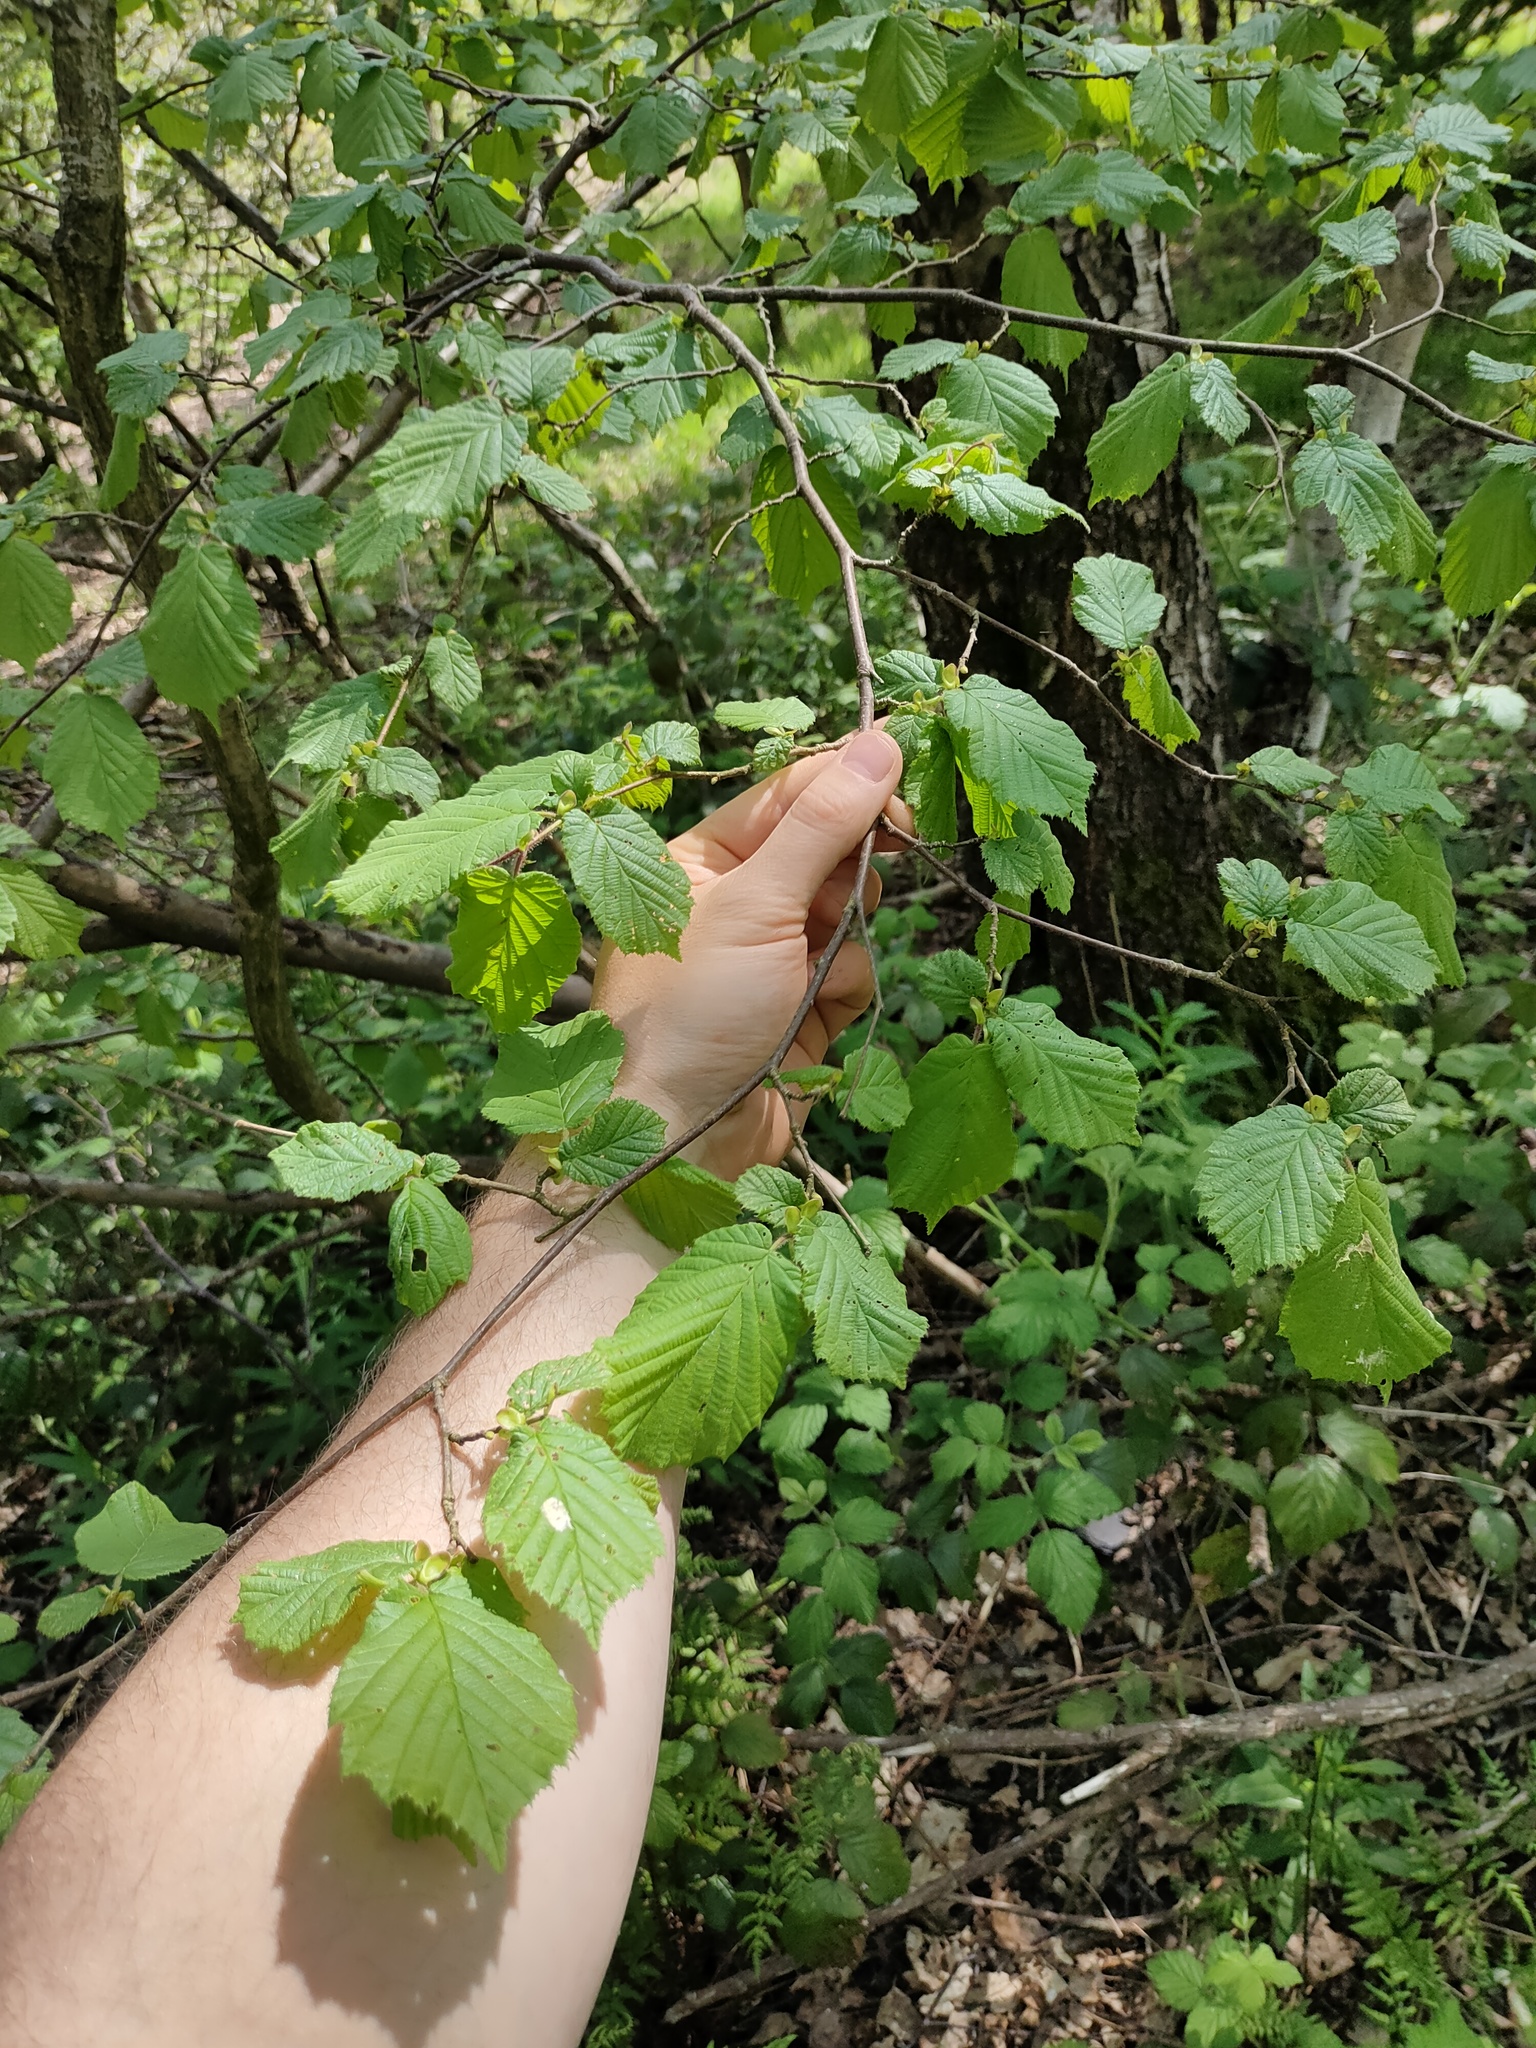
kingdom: Plantae
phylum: Tracheophyta
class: Magnoliopsida
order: Fagales
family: Betulaceae
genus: Corylus
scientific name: Corylus avellana
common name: European hazel
